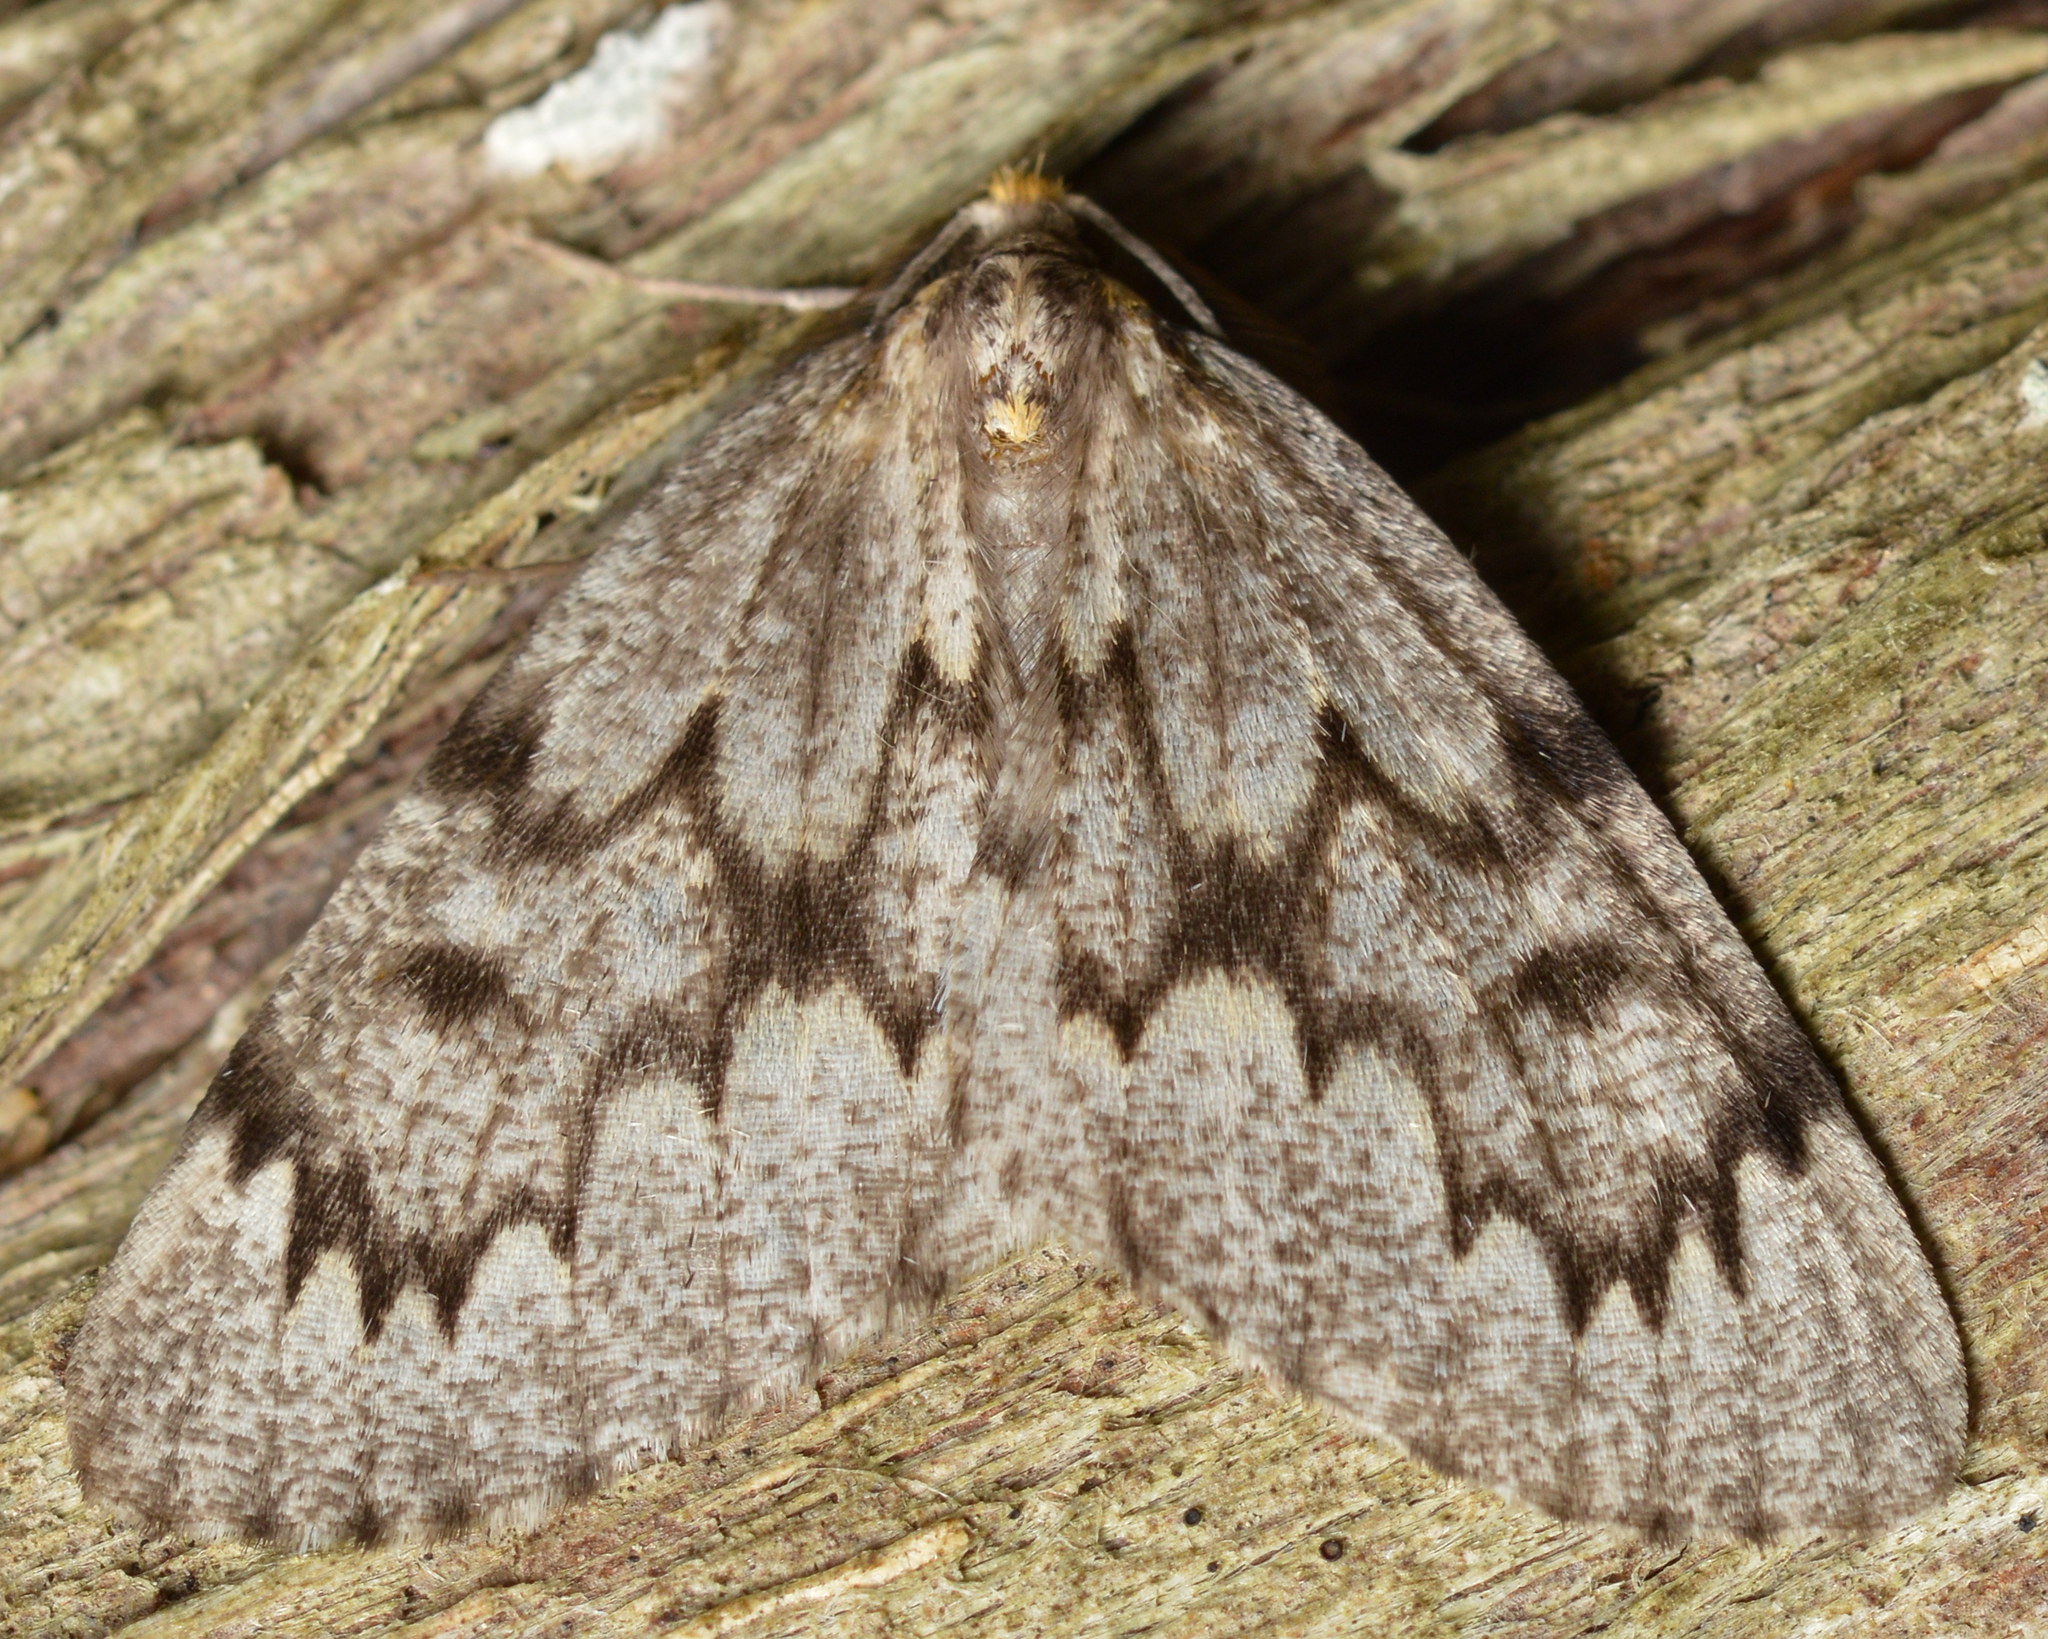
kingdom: Animalia
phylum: Arthropoda
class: Insecta
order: Lepidoptera
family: Geometridae
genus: Nepytia
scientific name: Nepytia canosaria
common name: False hemlock looper
